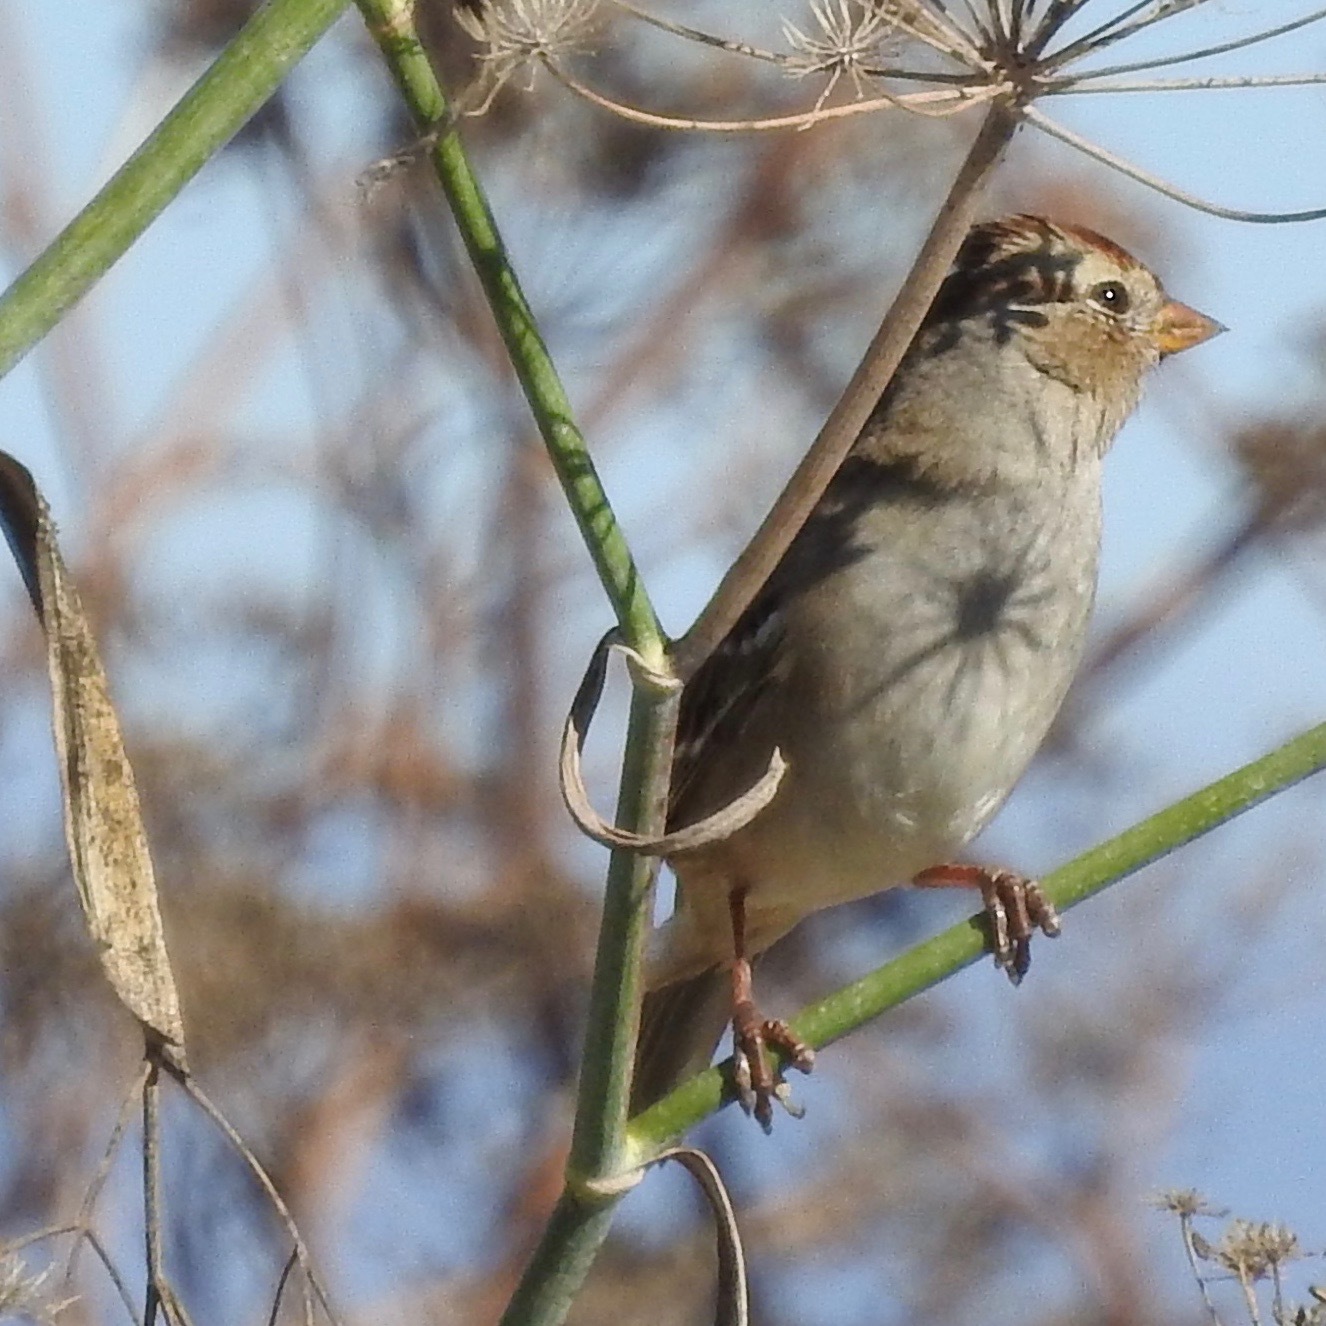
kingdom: Animalia
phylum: Chordata
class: Aves
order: Passeriformes
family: Passerellidae
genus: Zonotrichia
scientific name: Zonotrichia leucophrys
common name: White-crowned sparrow
